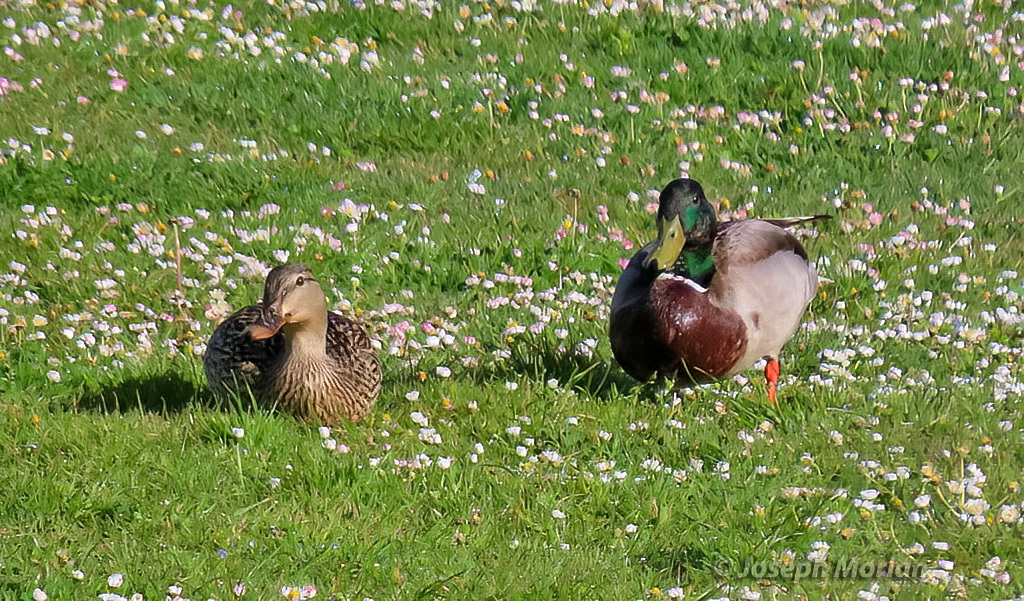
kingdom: Animalia
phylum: Chordata
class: Aves
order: Anseriformes
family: Anatidae
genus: Anas
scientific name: Anas platyrhynchos
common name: Mallard
